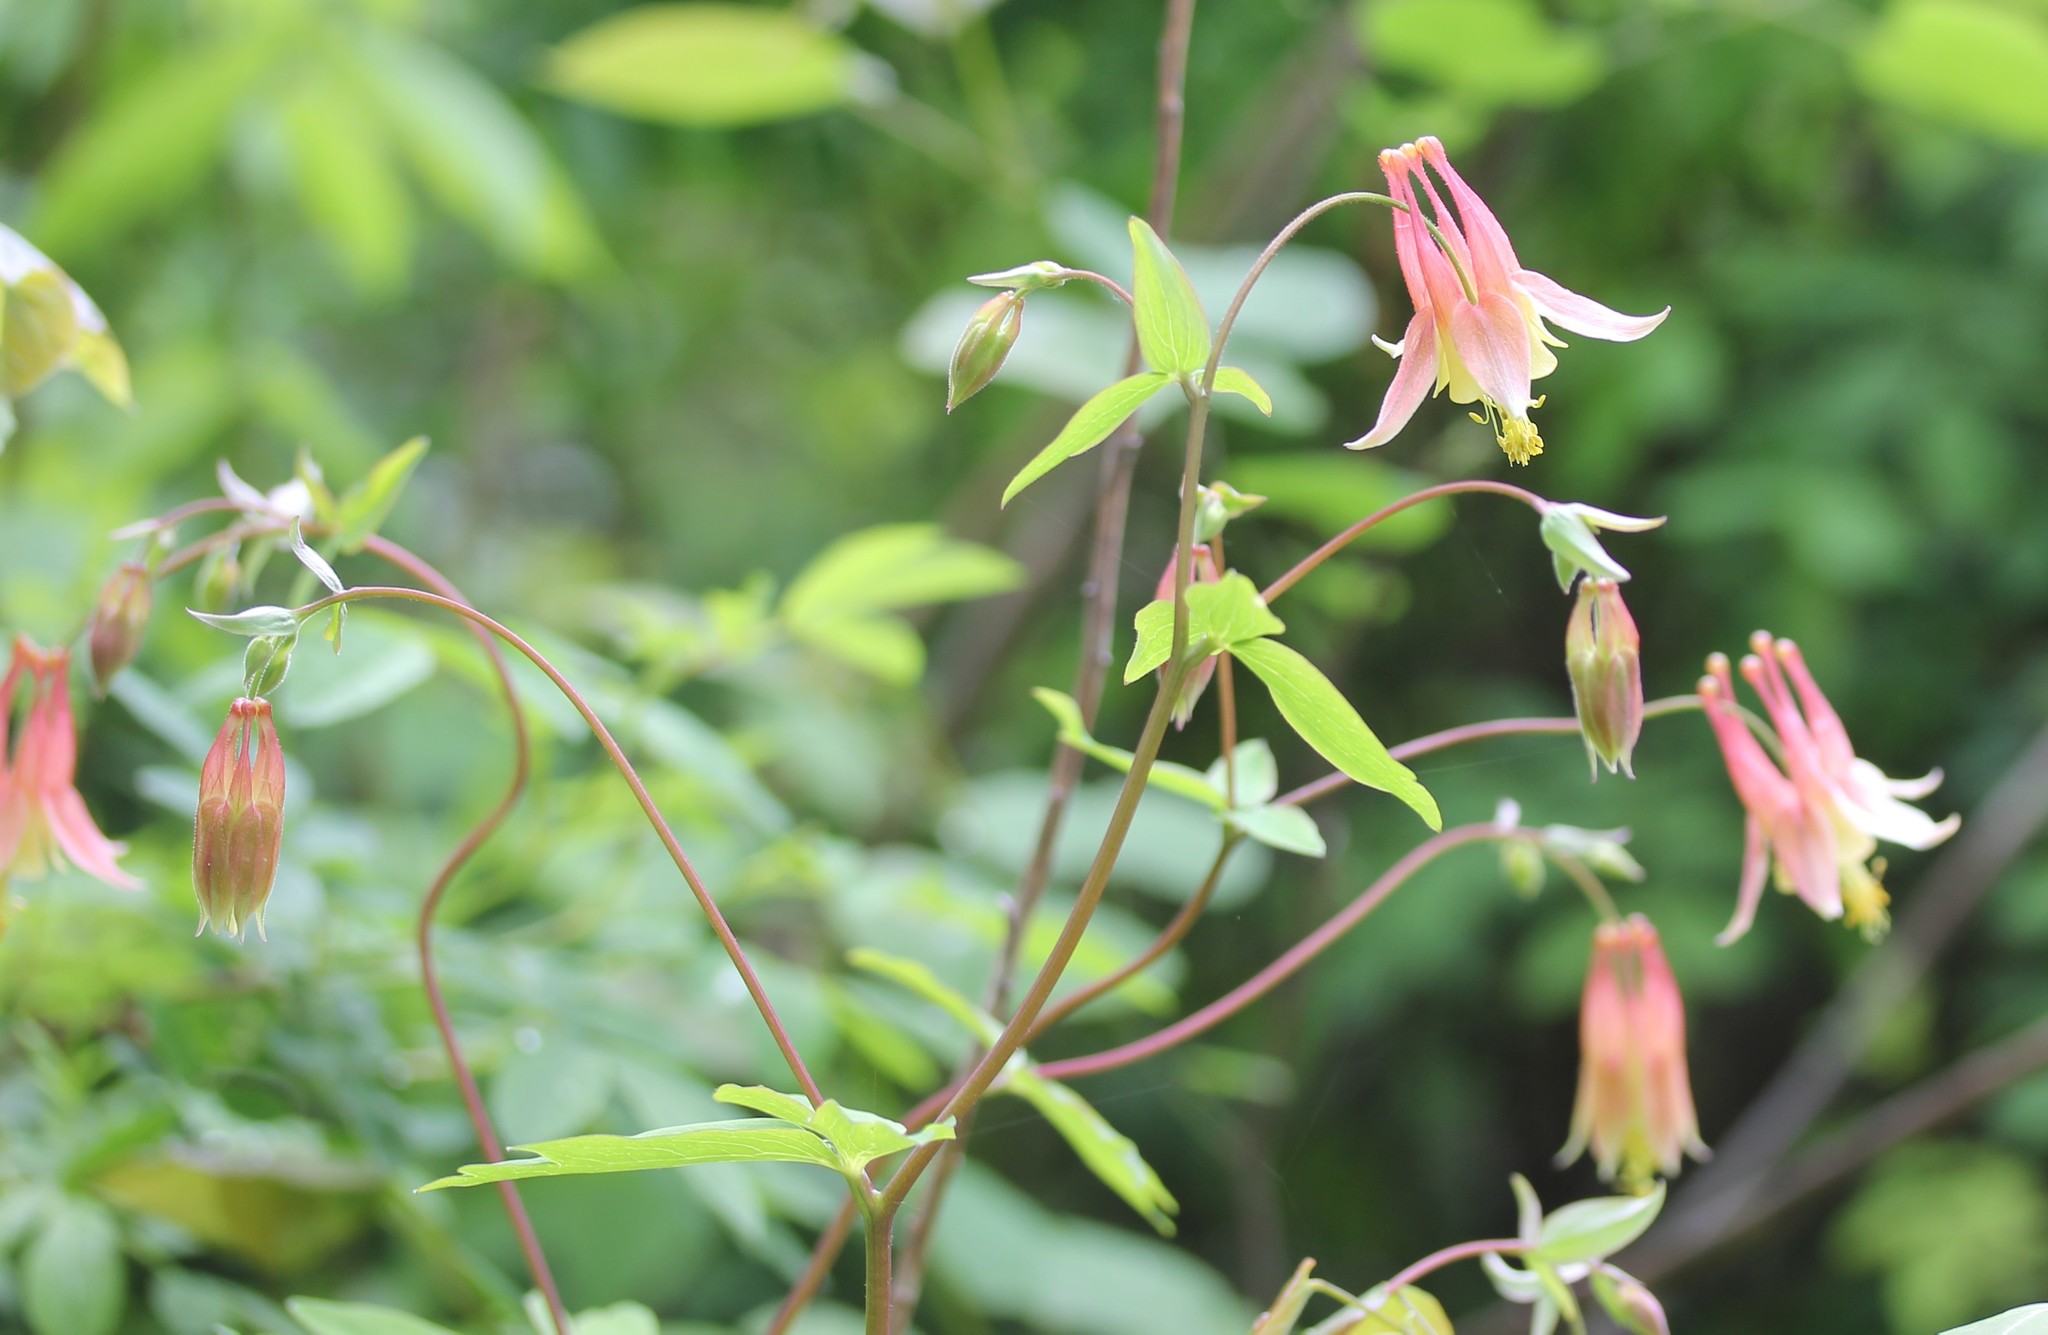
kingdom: Plantae
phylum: Tracheophyta
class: Magnoliopsida
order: Ranunculales
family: Ranunculaceae
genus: Aquilegia
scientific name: Aquilegia canadensis
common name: American columbine
